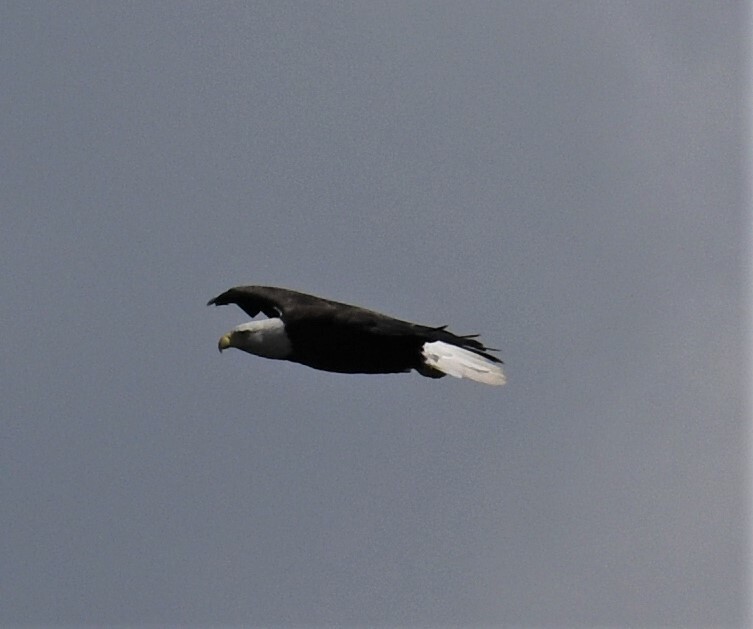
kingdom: Animalia
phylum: Chordata
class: Aves
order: Accipitriformes
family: Accipitridae
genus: Haliaeetus
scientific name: Haliaeetus leucocephalus
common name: Bald eagle
